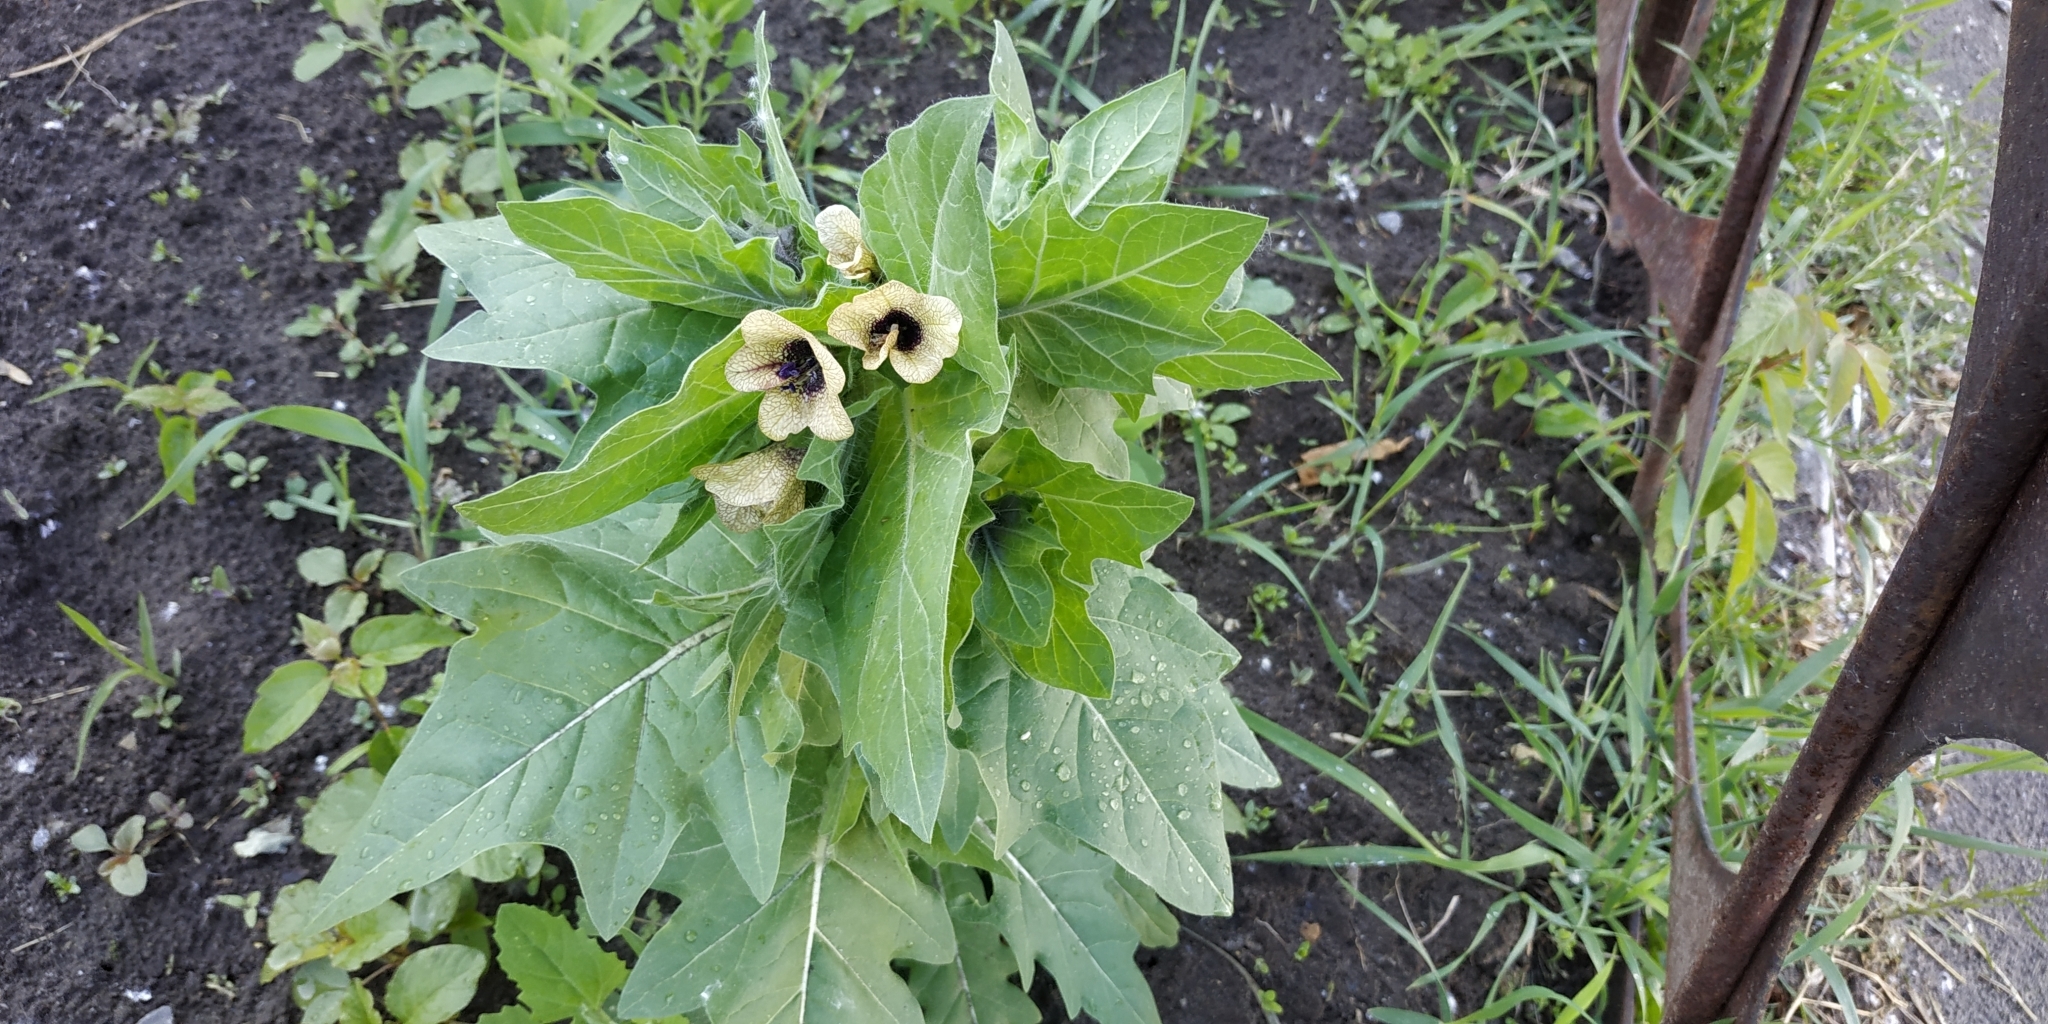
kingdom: Plantae
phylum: Tracheophyta
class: Magnoliopsida
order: Solanales
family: Solanaceae
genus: Hyoscyamus
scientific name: Hyoscyamus niger
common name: Henbane
